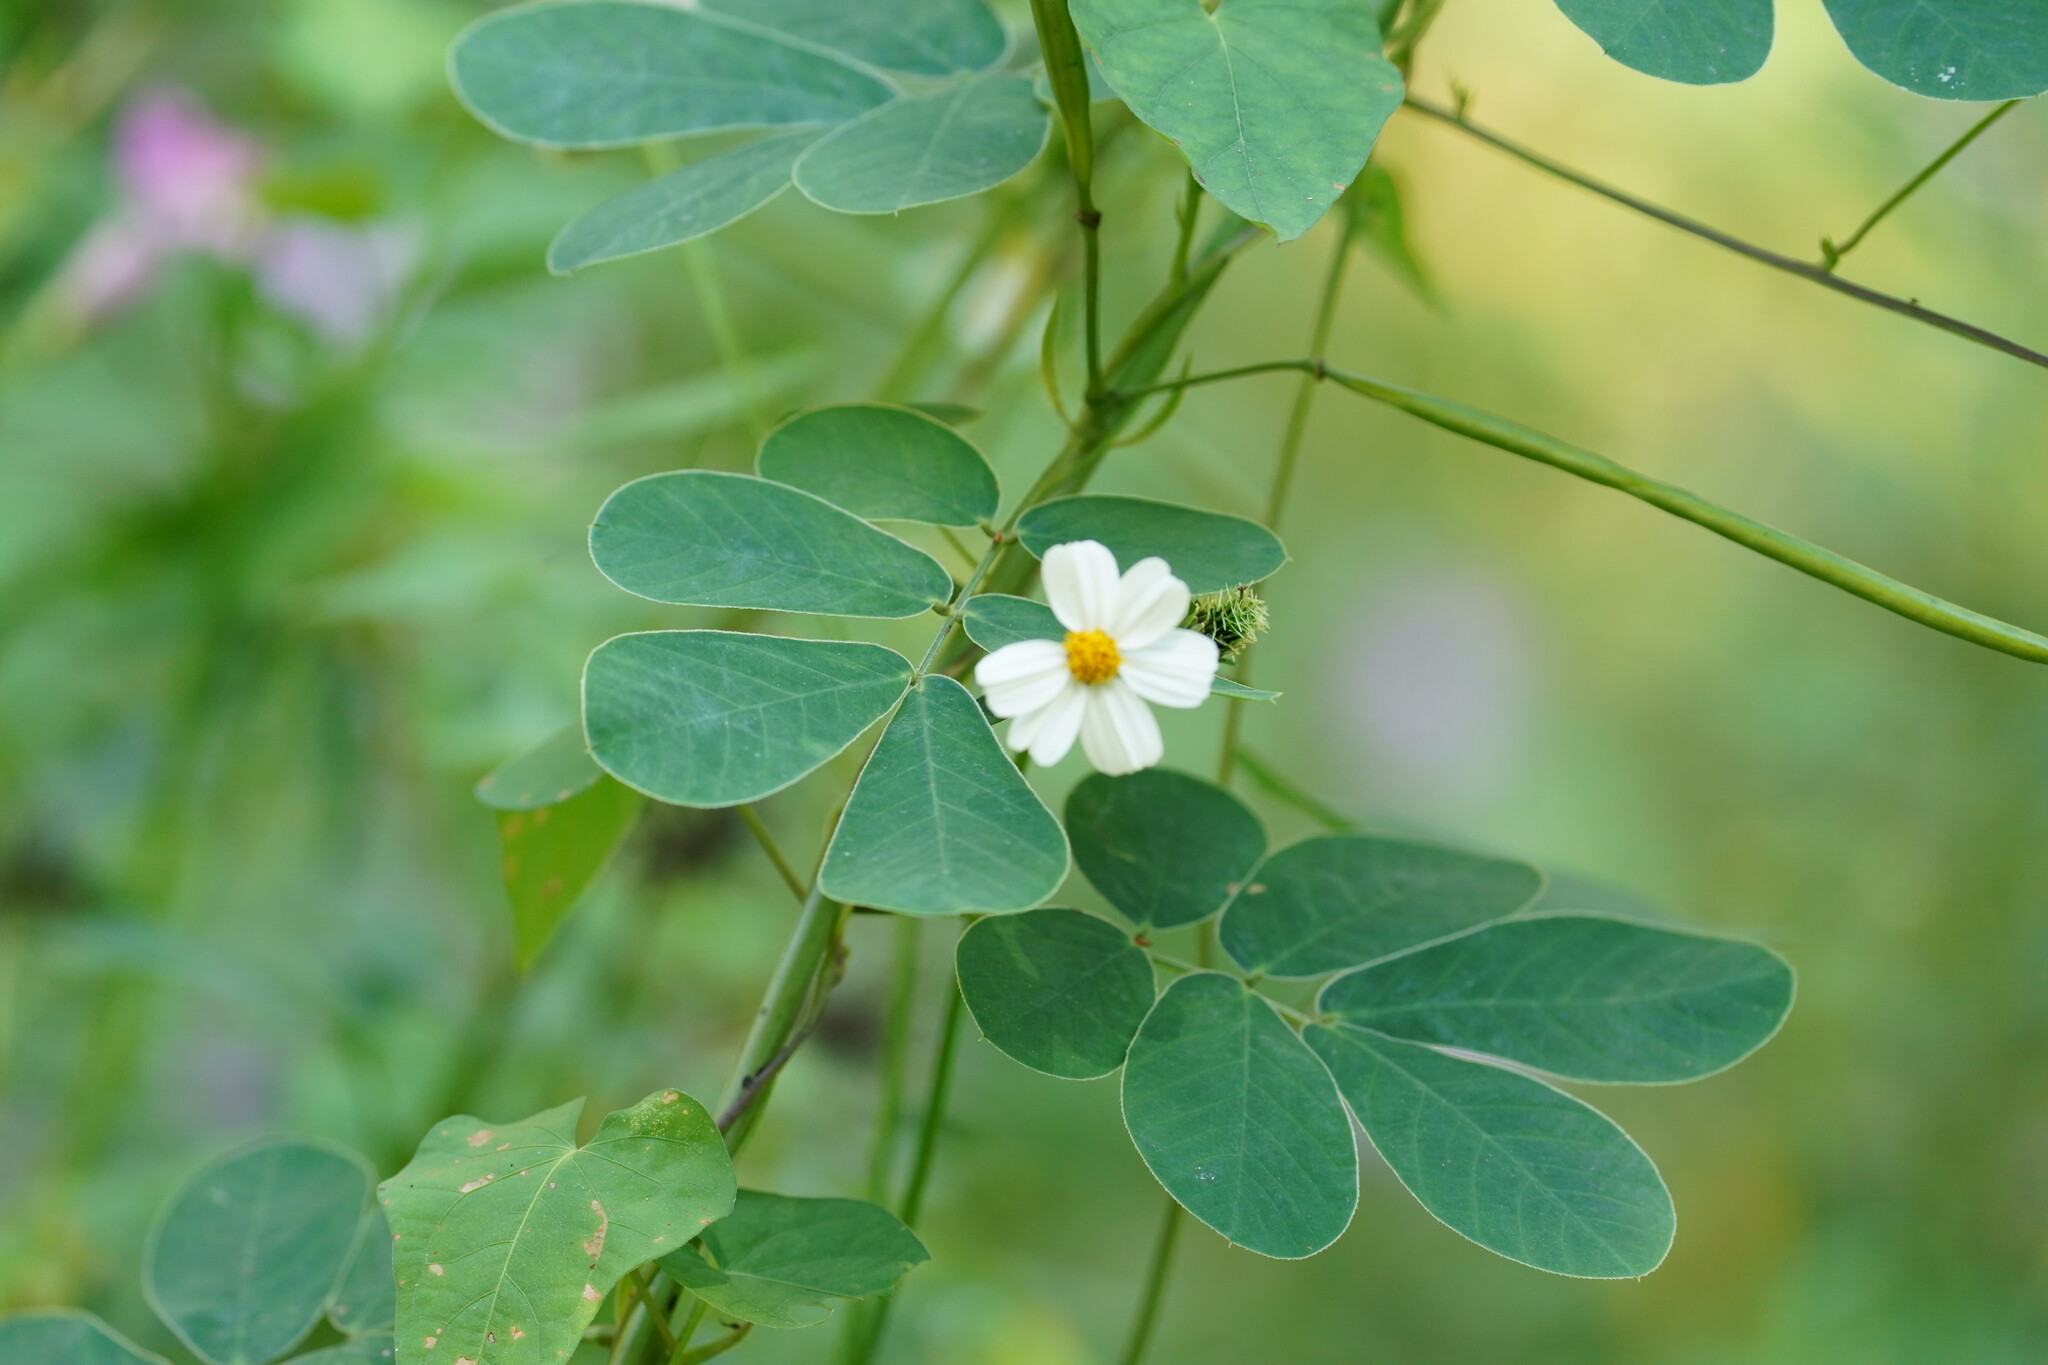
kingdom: Plantae
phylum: Tracheophyta
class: Magnoliopsida
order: Asterales
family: Asteraceae
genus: Bidens
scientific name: Bidens alba
